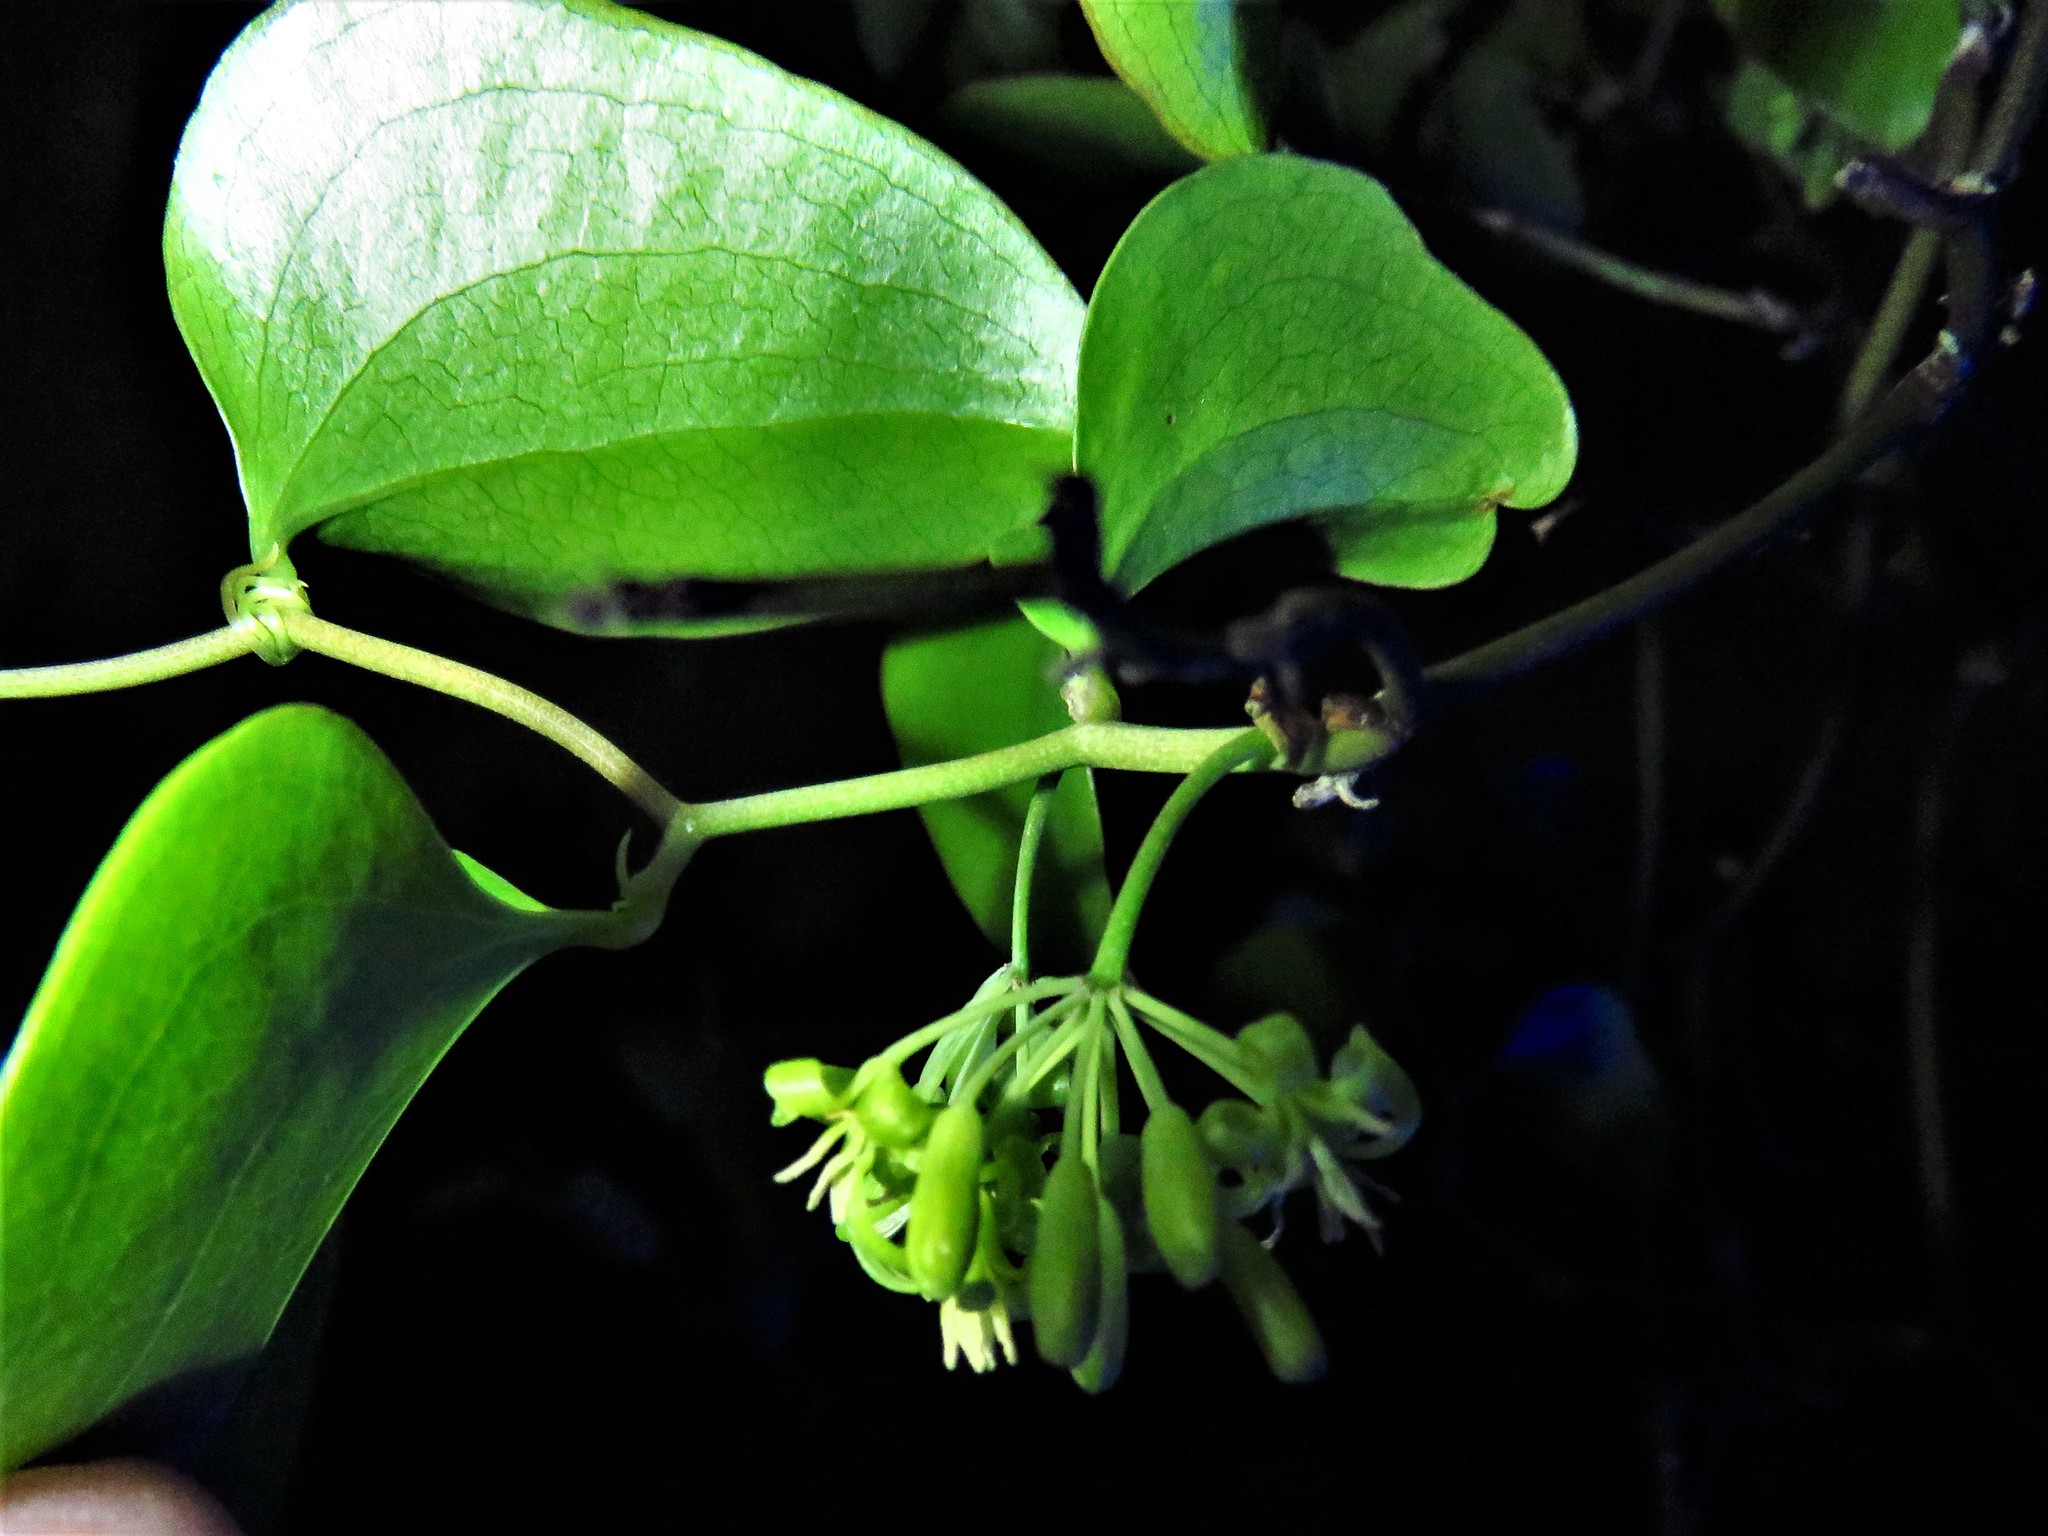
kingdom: Plantae
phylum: Tracheophyta
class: Liliopsida
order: Liliales
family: Smilacaceae
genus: Smilax
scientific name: Smilax bona-nox
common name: Catbrier
